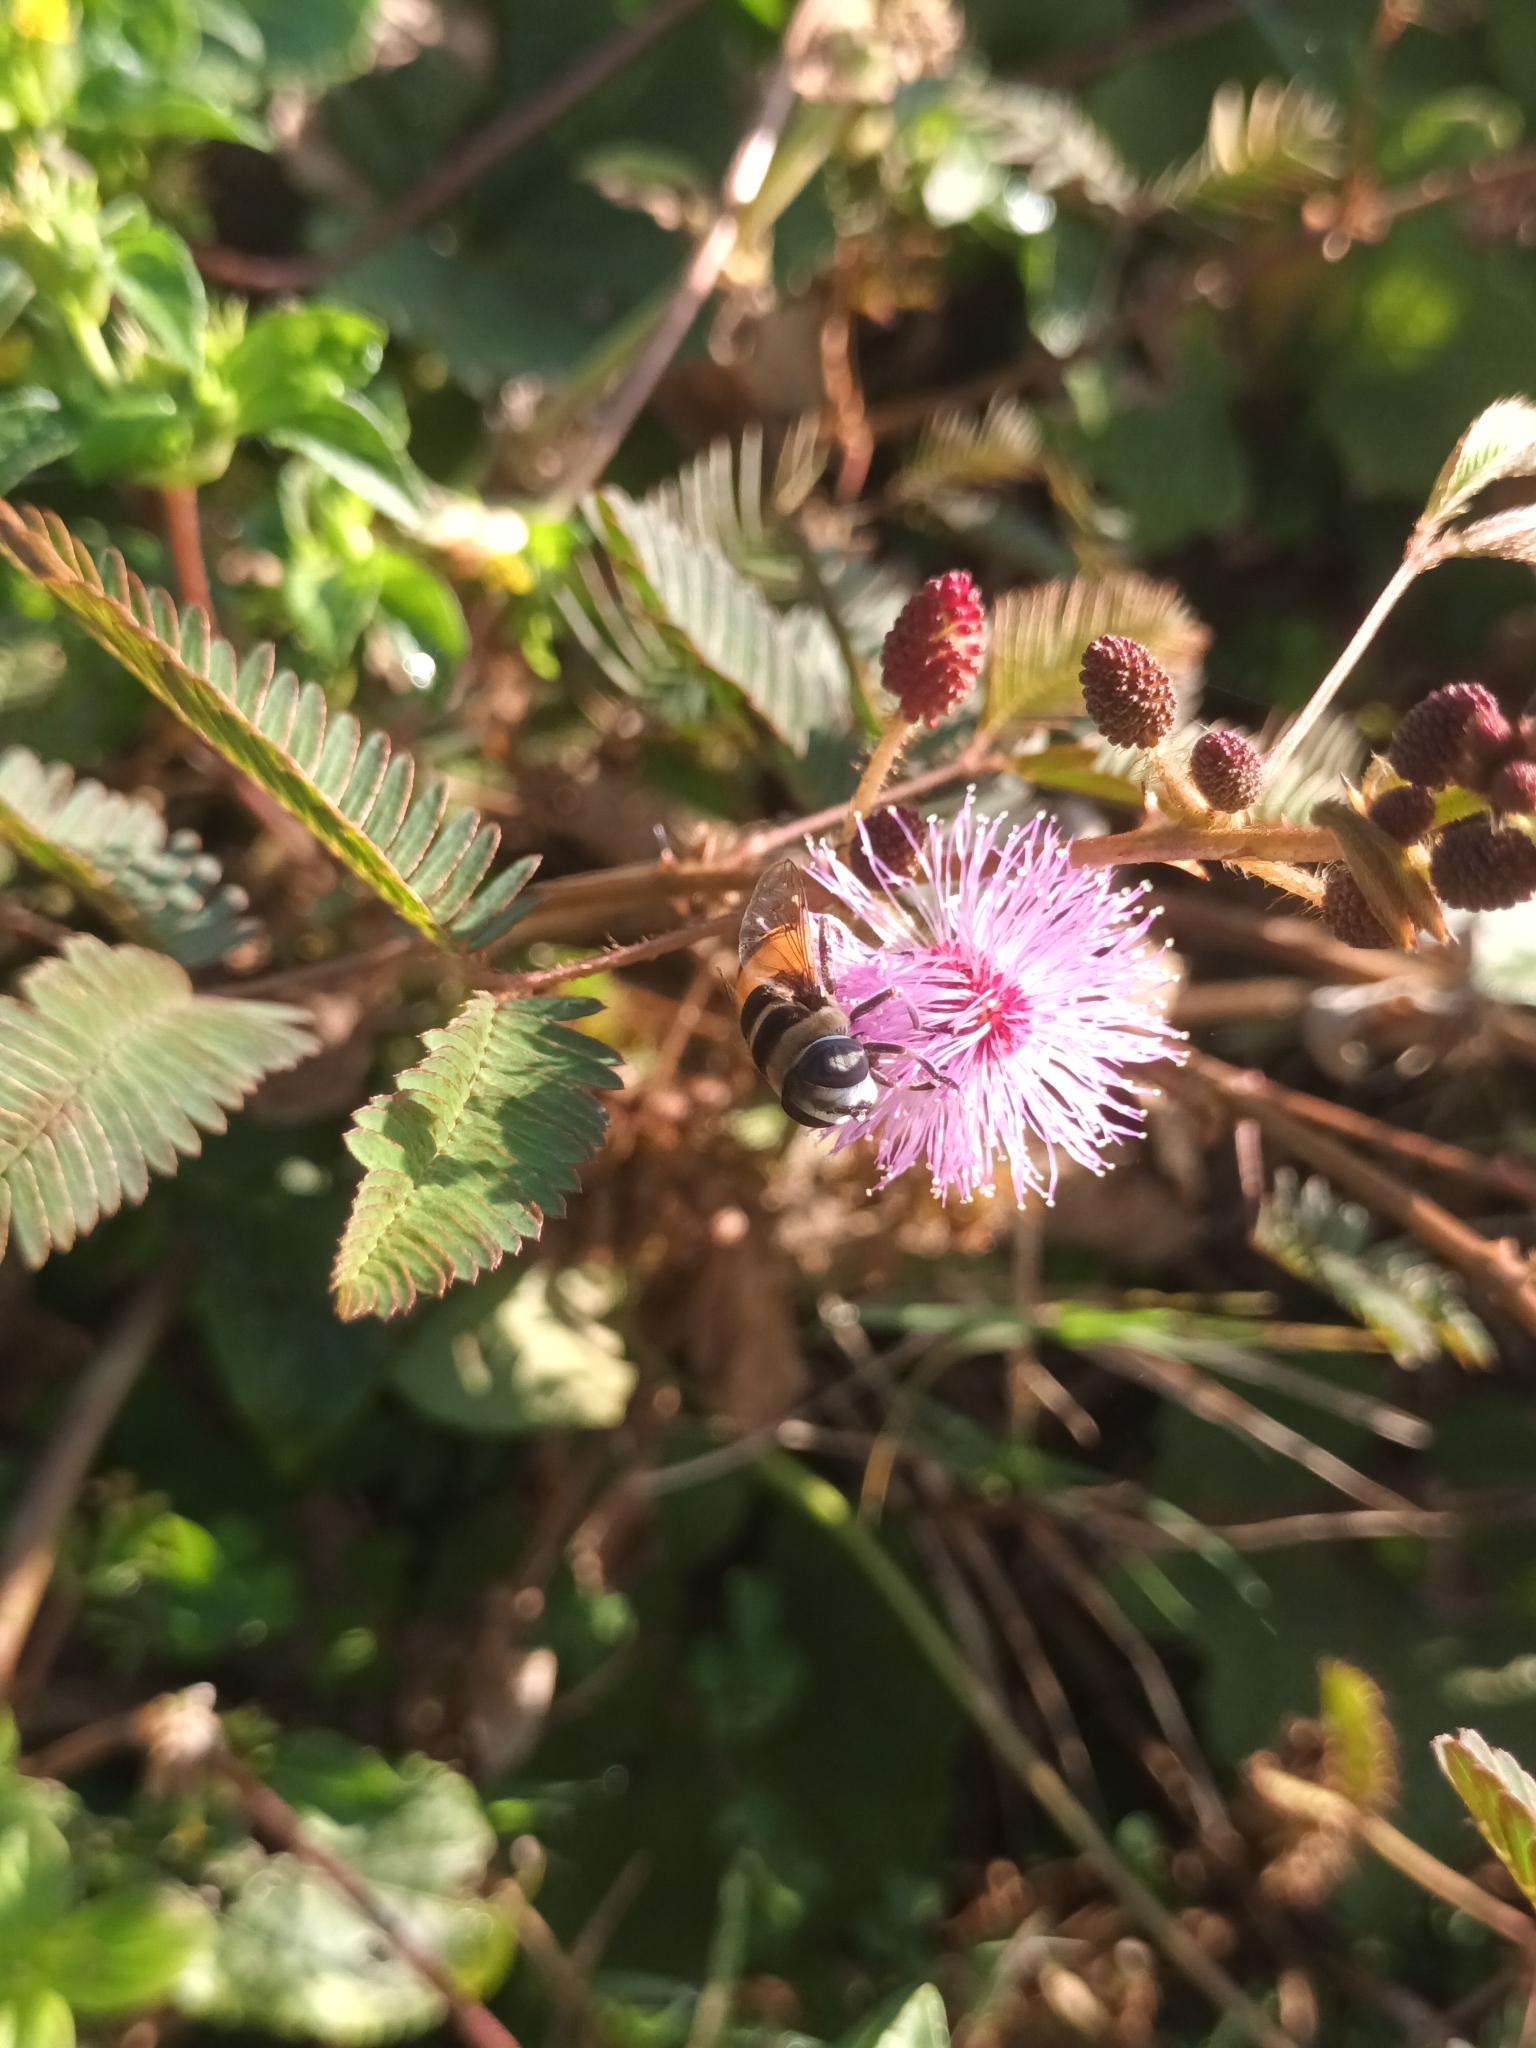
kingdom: Animalia
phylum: Arthropoda
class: Insecta
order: Diptera
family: Syrphidae
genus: Phytomia
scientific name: Phytomia argyrocephala
